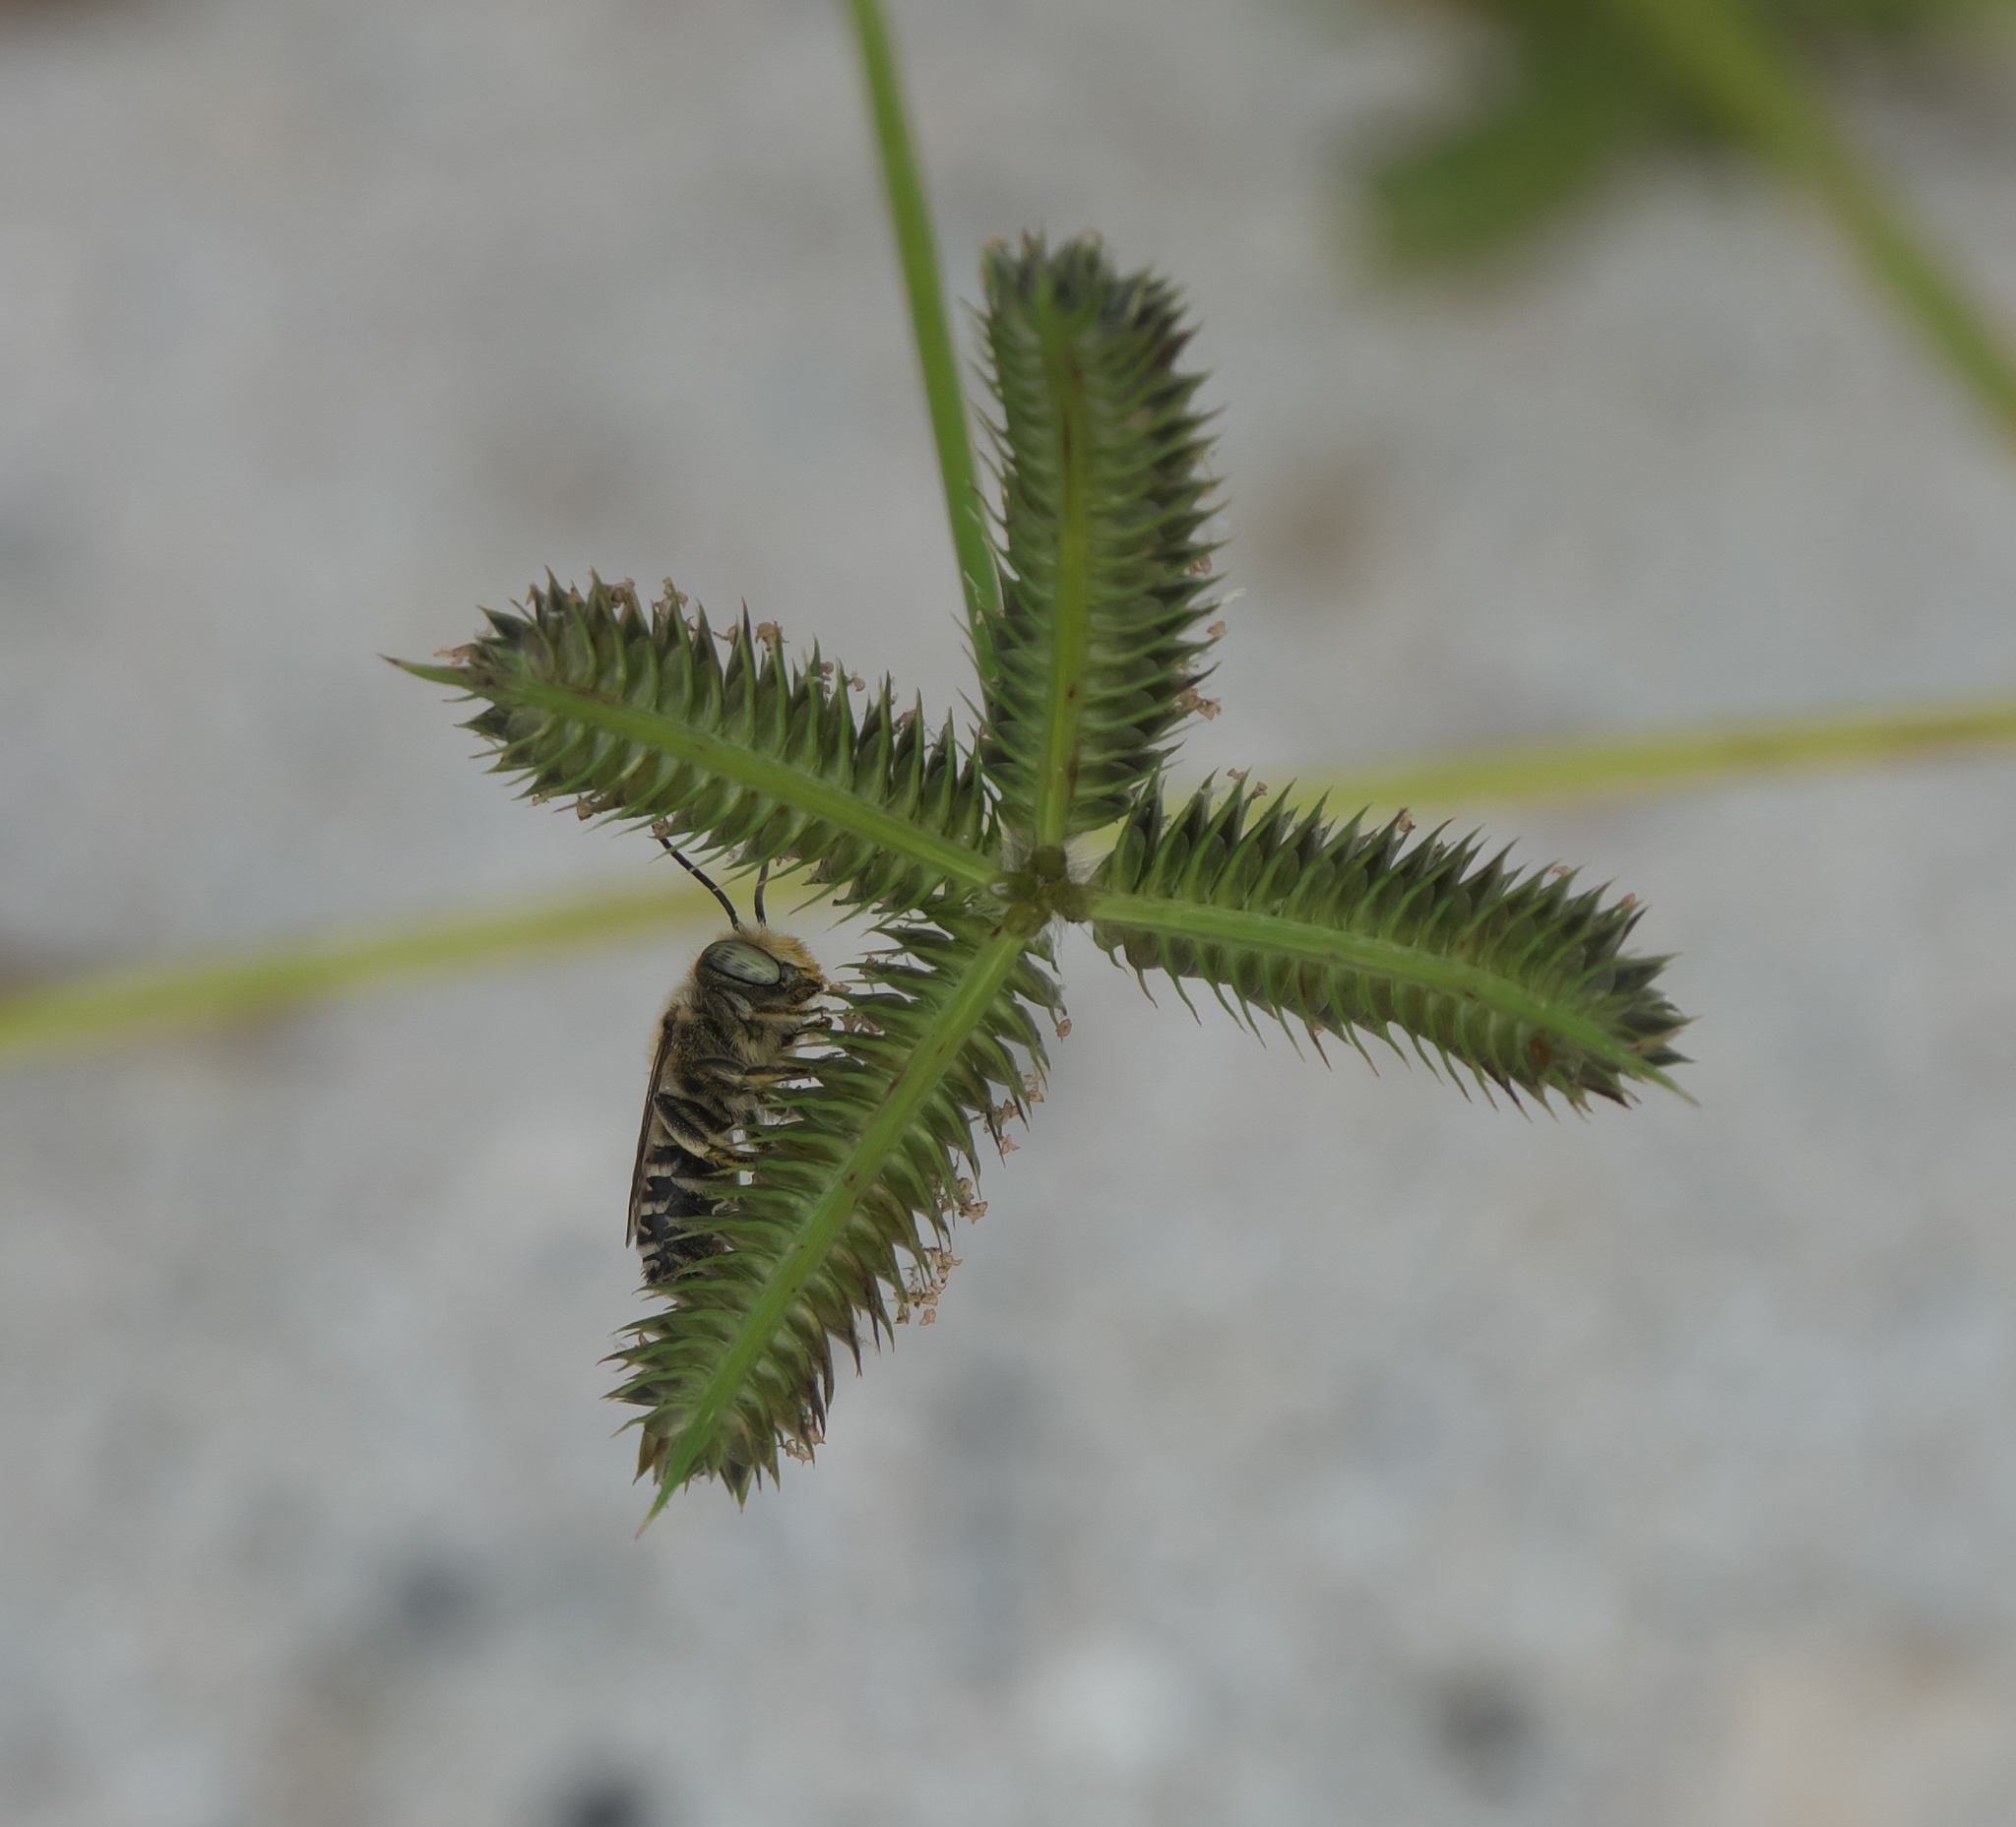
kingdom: Plantae
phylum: Tracheophyta
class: Liliopsida
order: Poales
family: Poaceae
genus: Dactyloctenium
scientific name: Dactyloctenium aegyptium
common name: Egyptian grass
